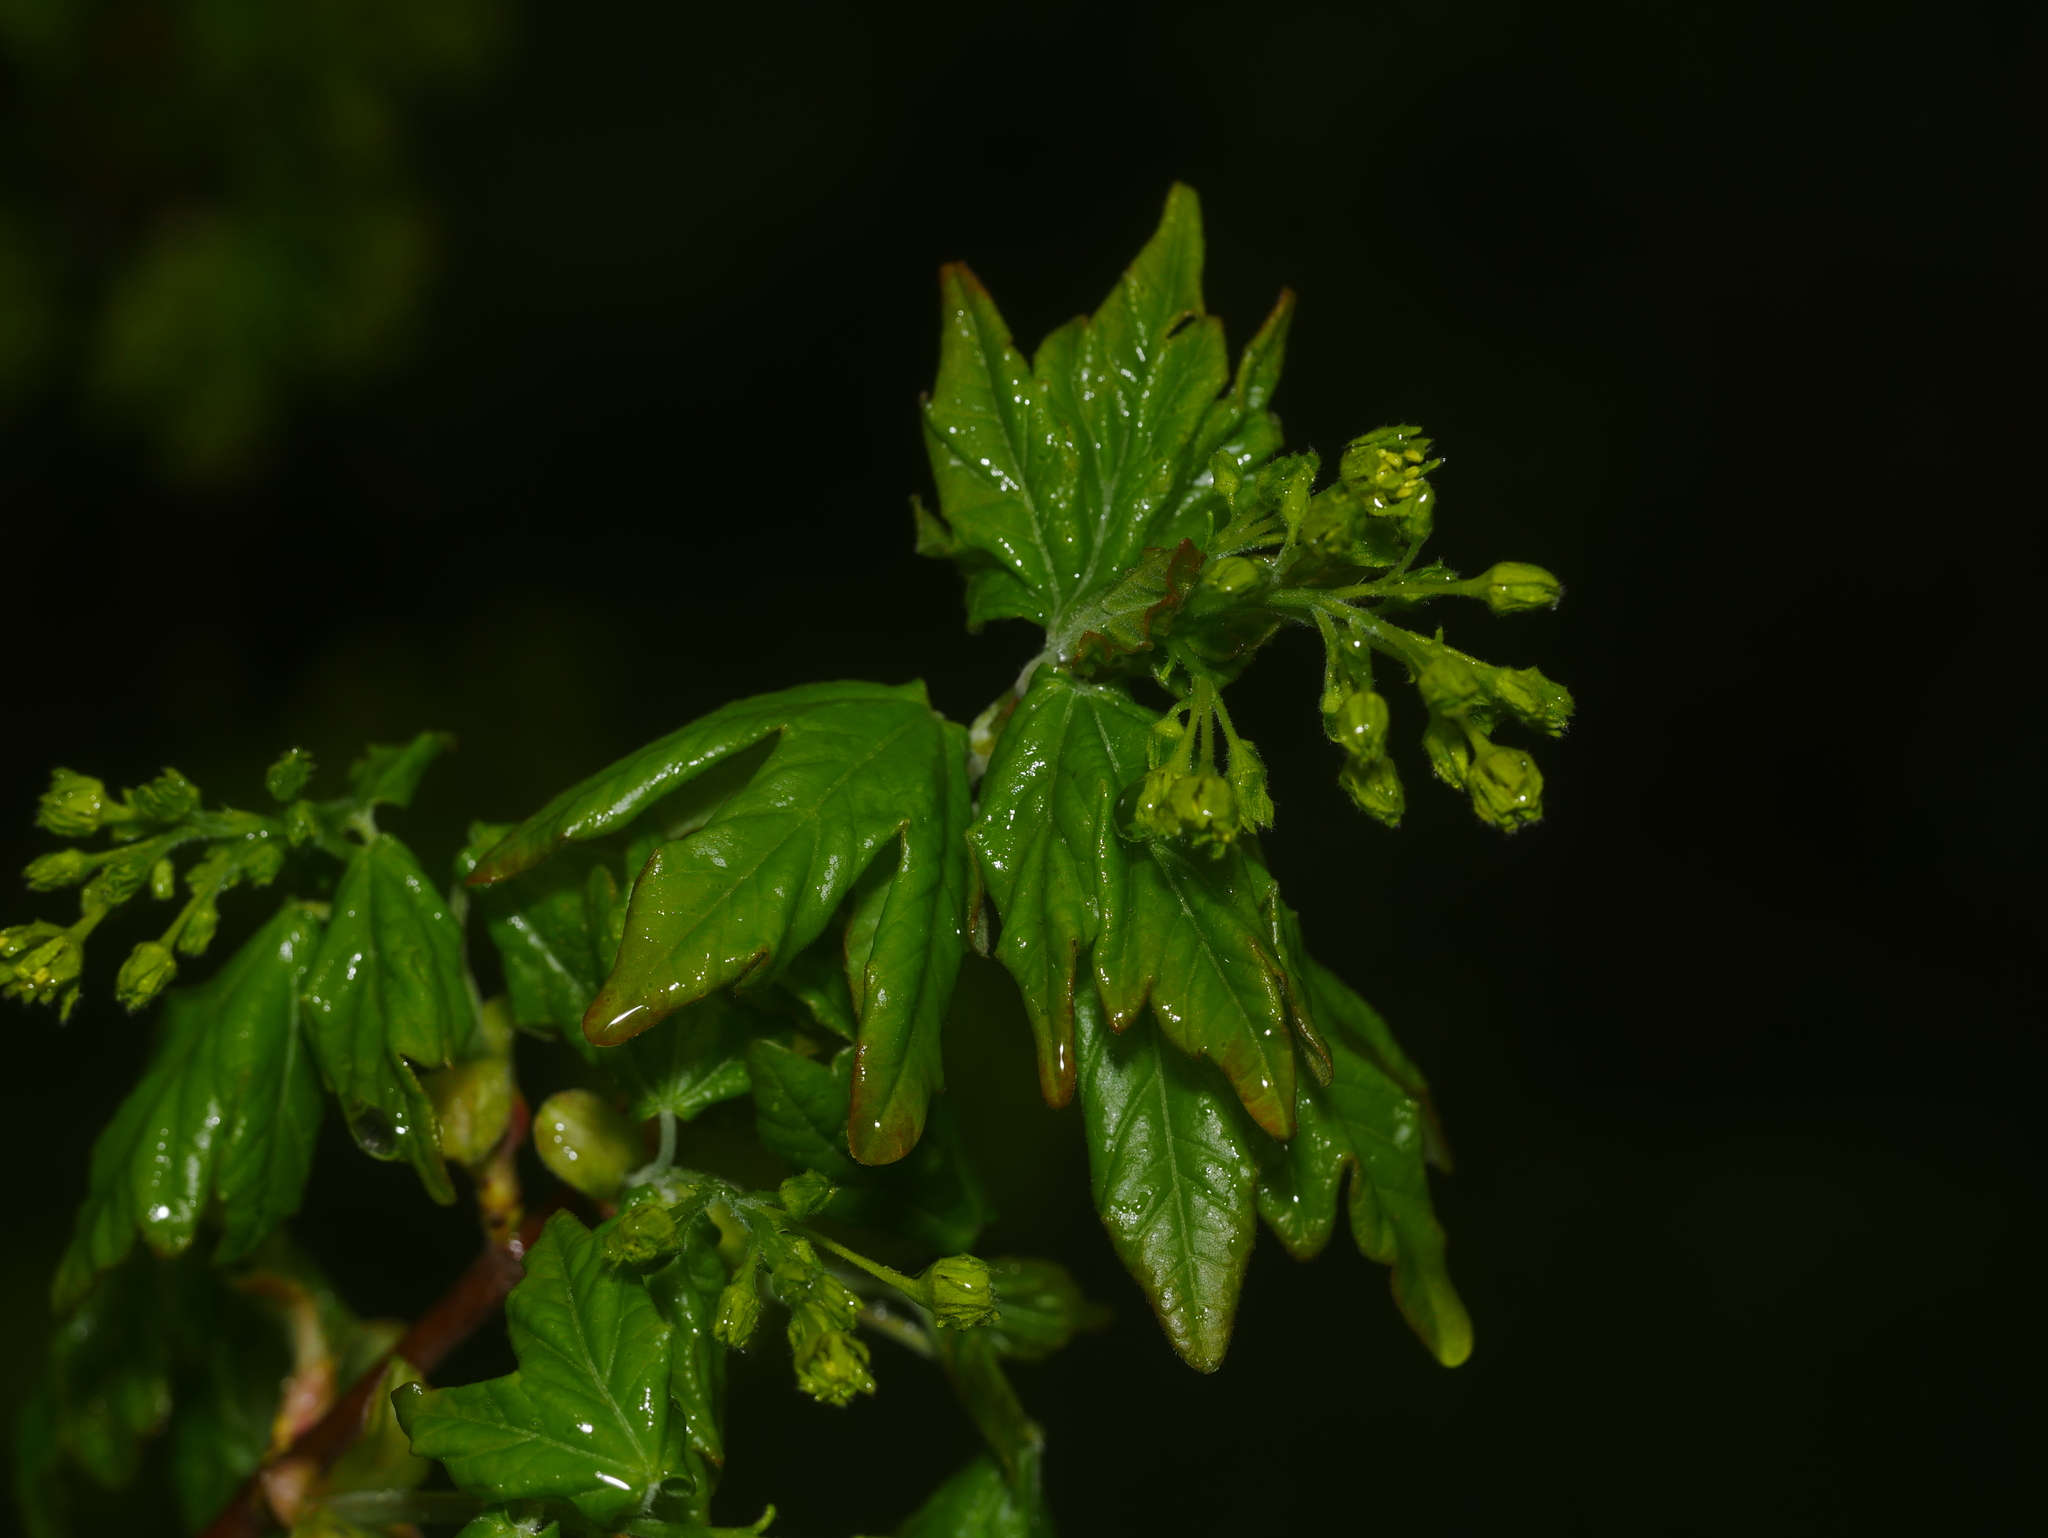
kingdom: Plantae
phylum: Tracheophyta
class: Magnoliopsida
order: Sapindales
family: Sapindaceae
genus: Acer
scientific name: Acer campestre
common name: Field maple
